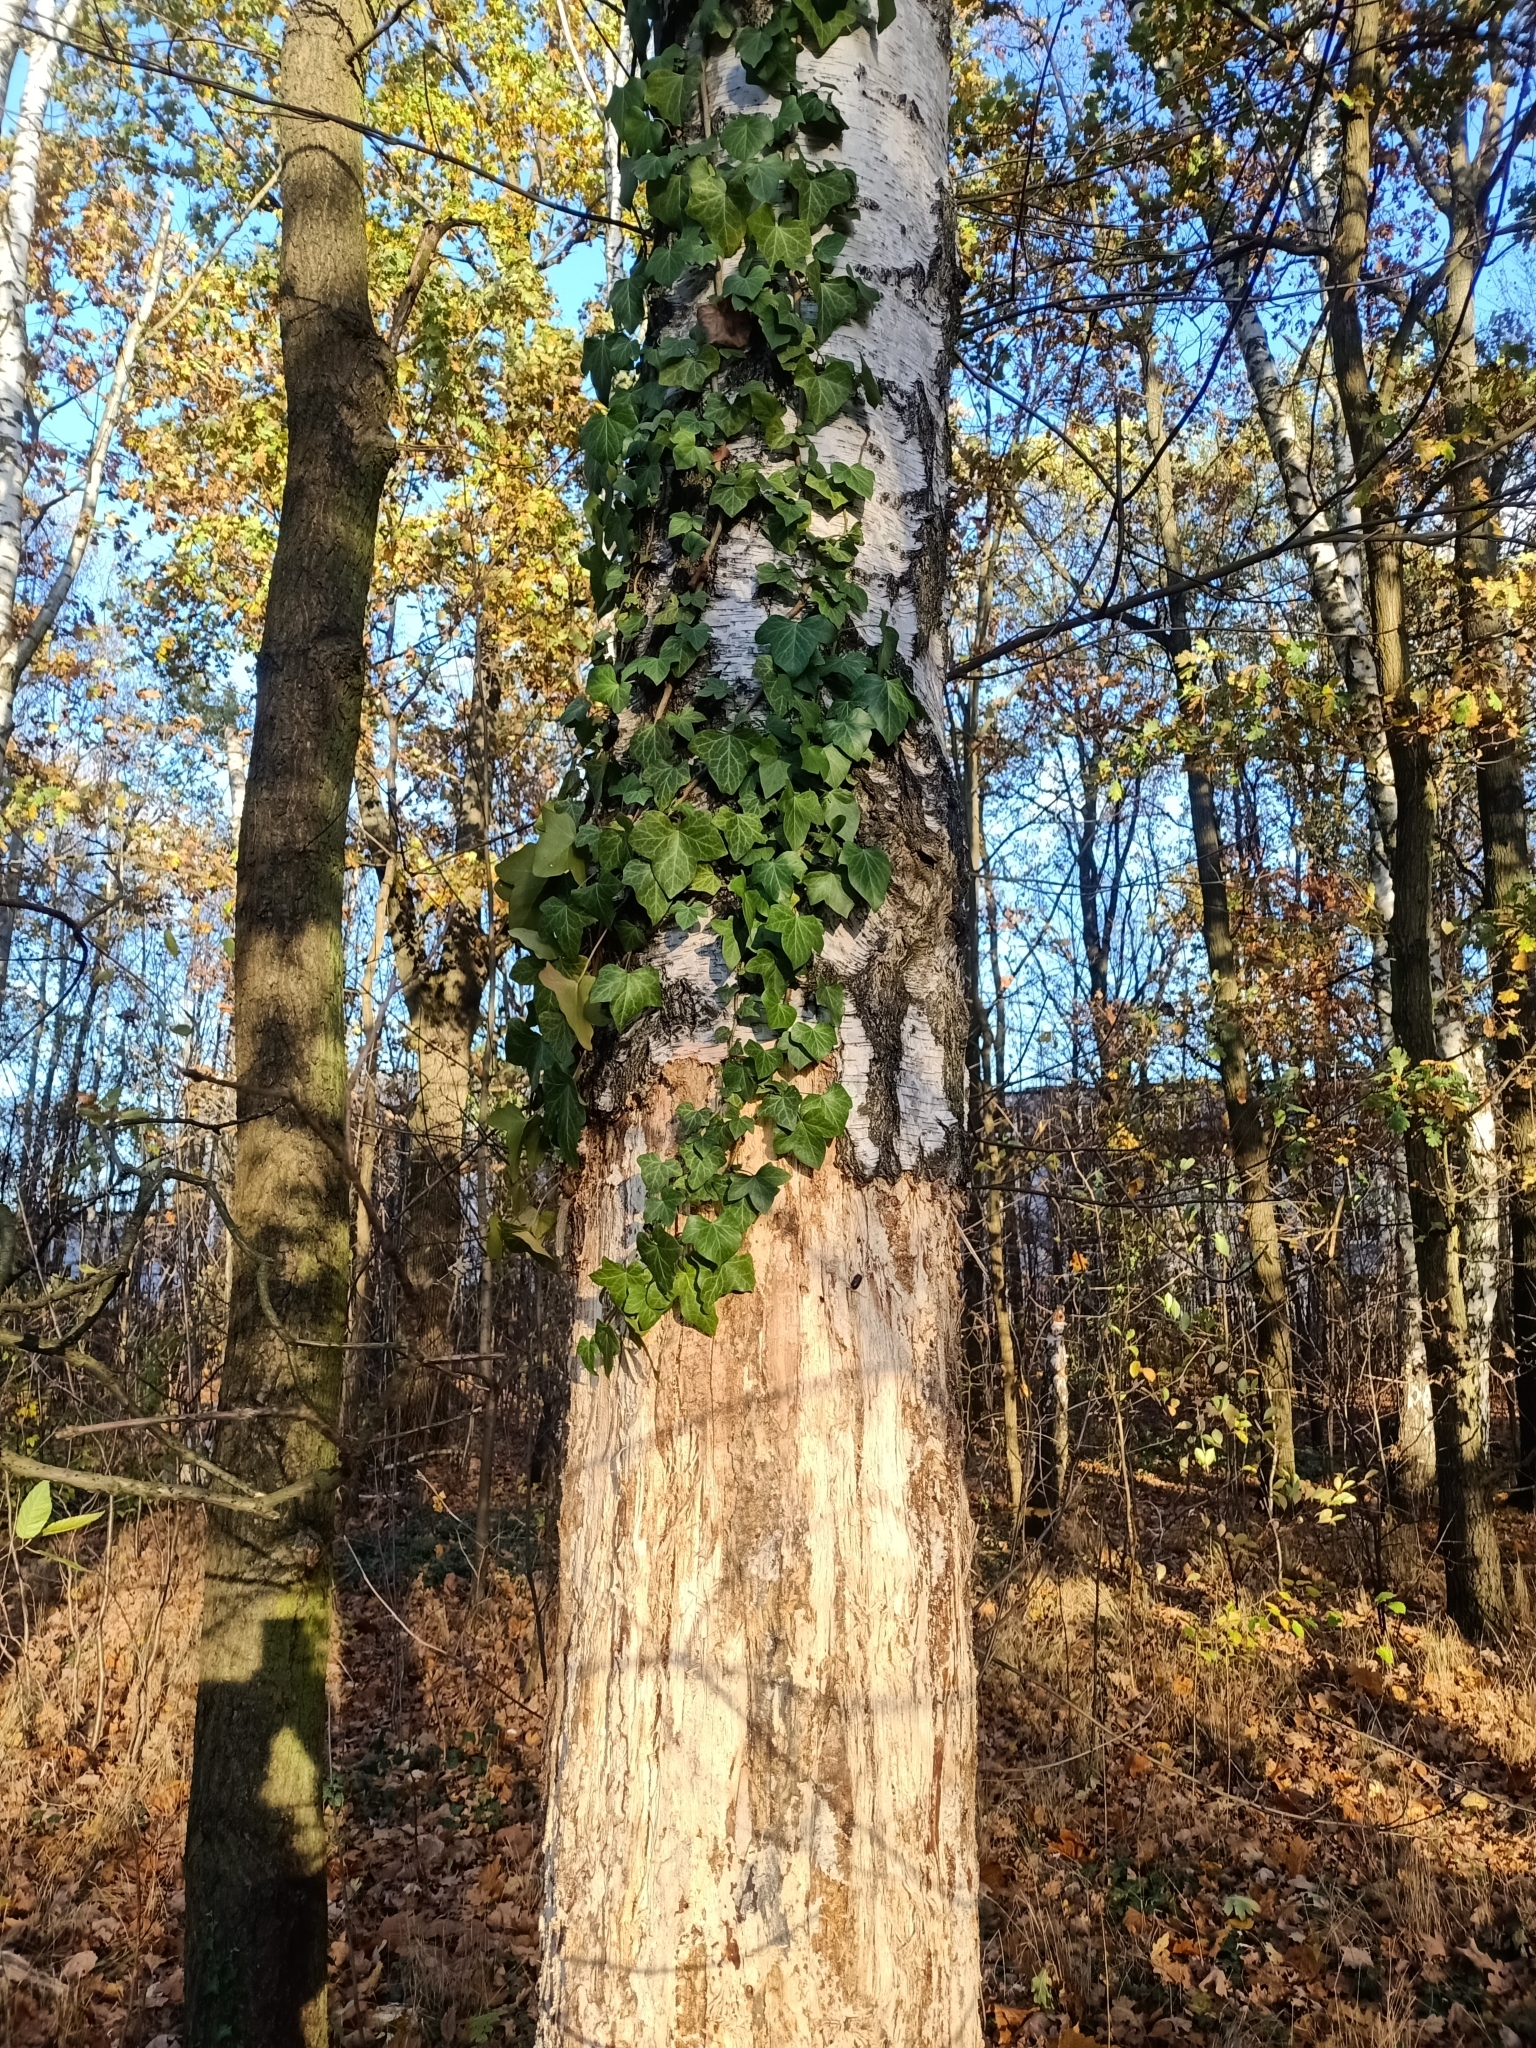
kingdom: Plantae
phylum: Tracheophyta
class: Magnoliopsida
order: Apiales
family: Araliaceae
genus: Hedera
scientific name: Hedera helix
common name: Ivy
